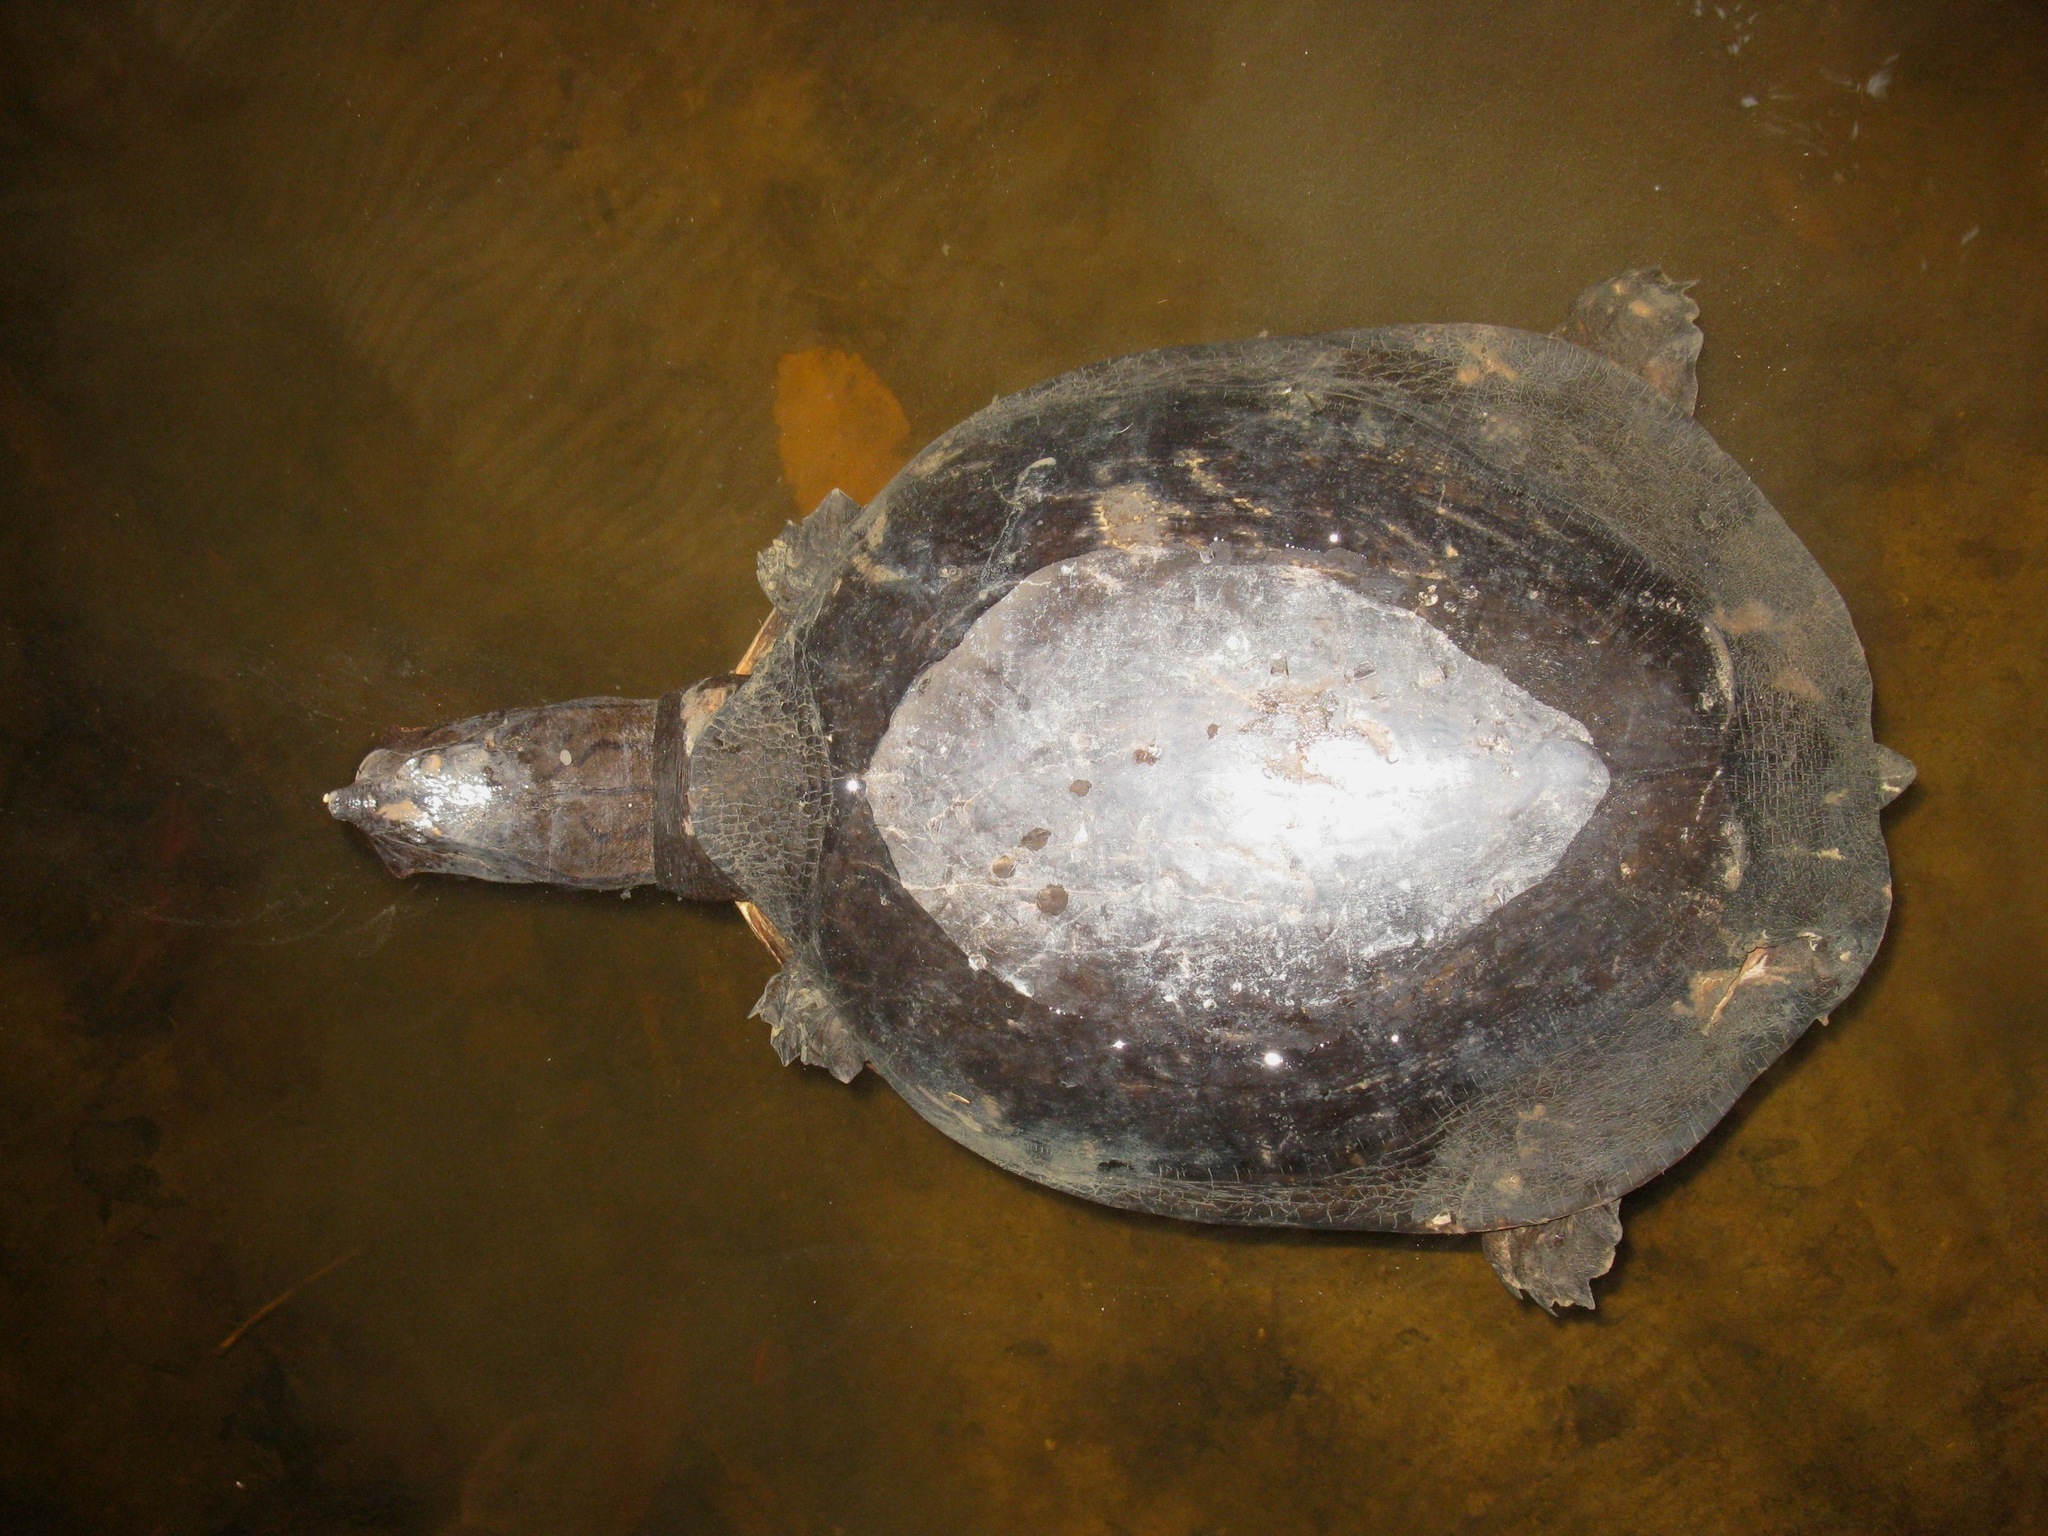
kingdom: Animalia
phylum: Chordata
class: Testudines
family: Trionychidae
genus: Cycloderma
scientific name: Cycloderma aubryi
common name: Aubry’s soft-shelled turtle
